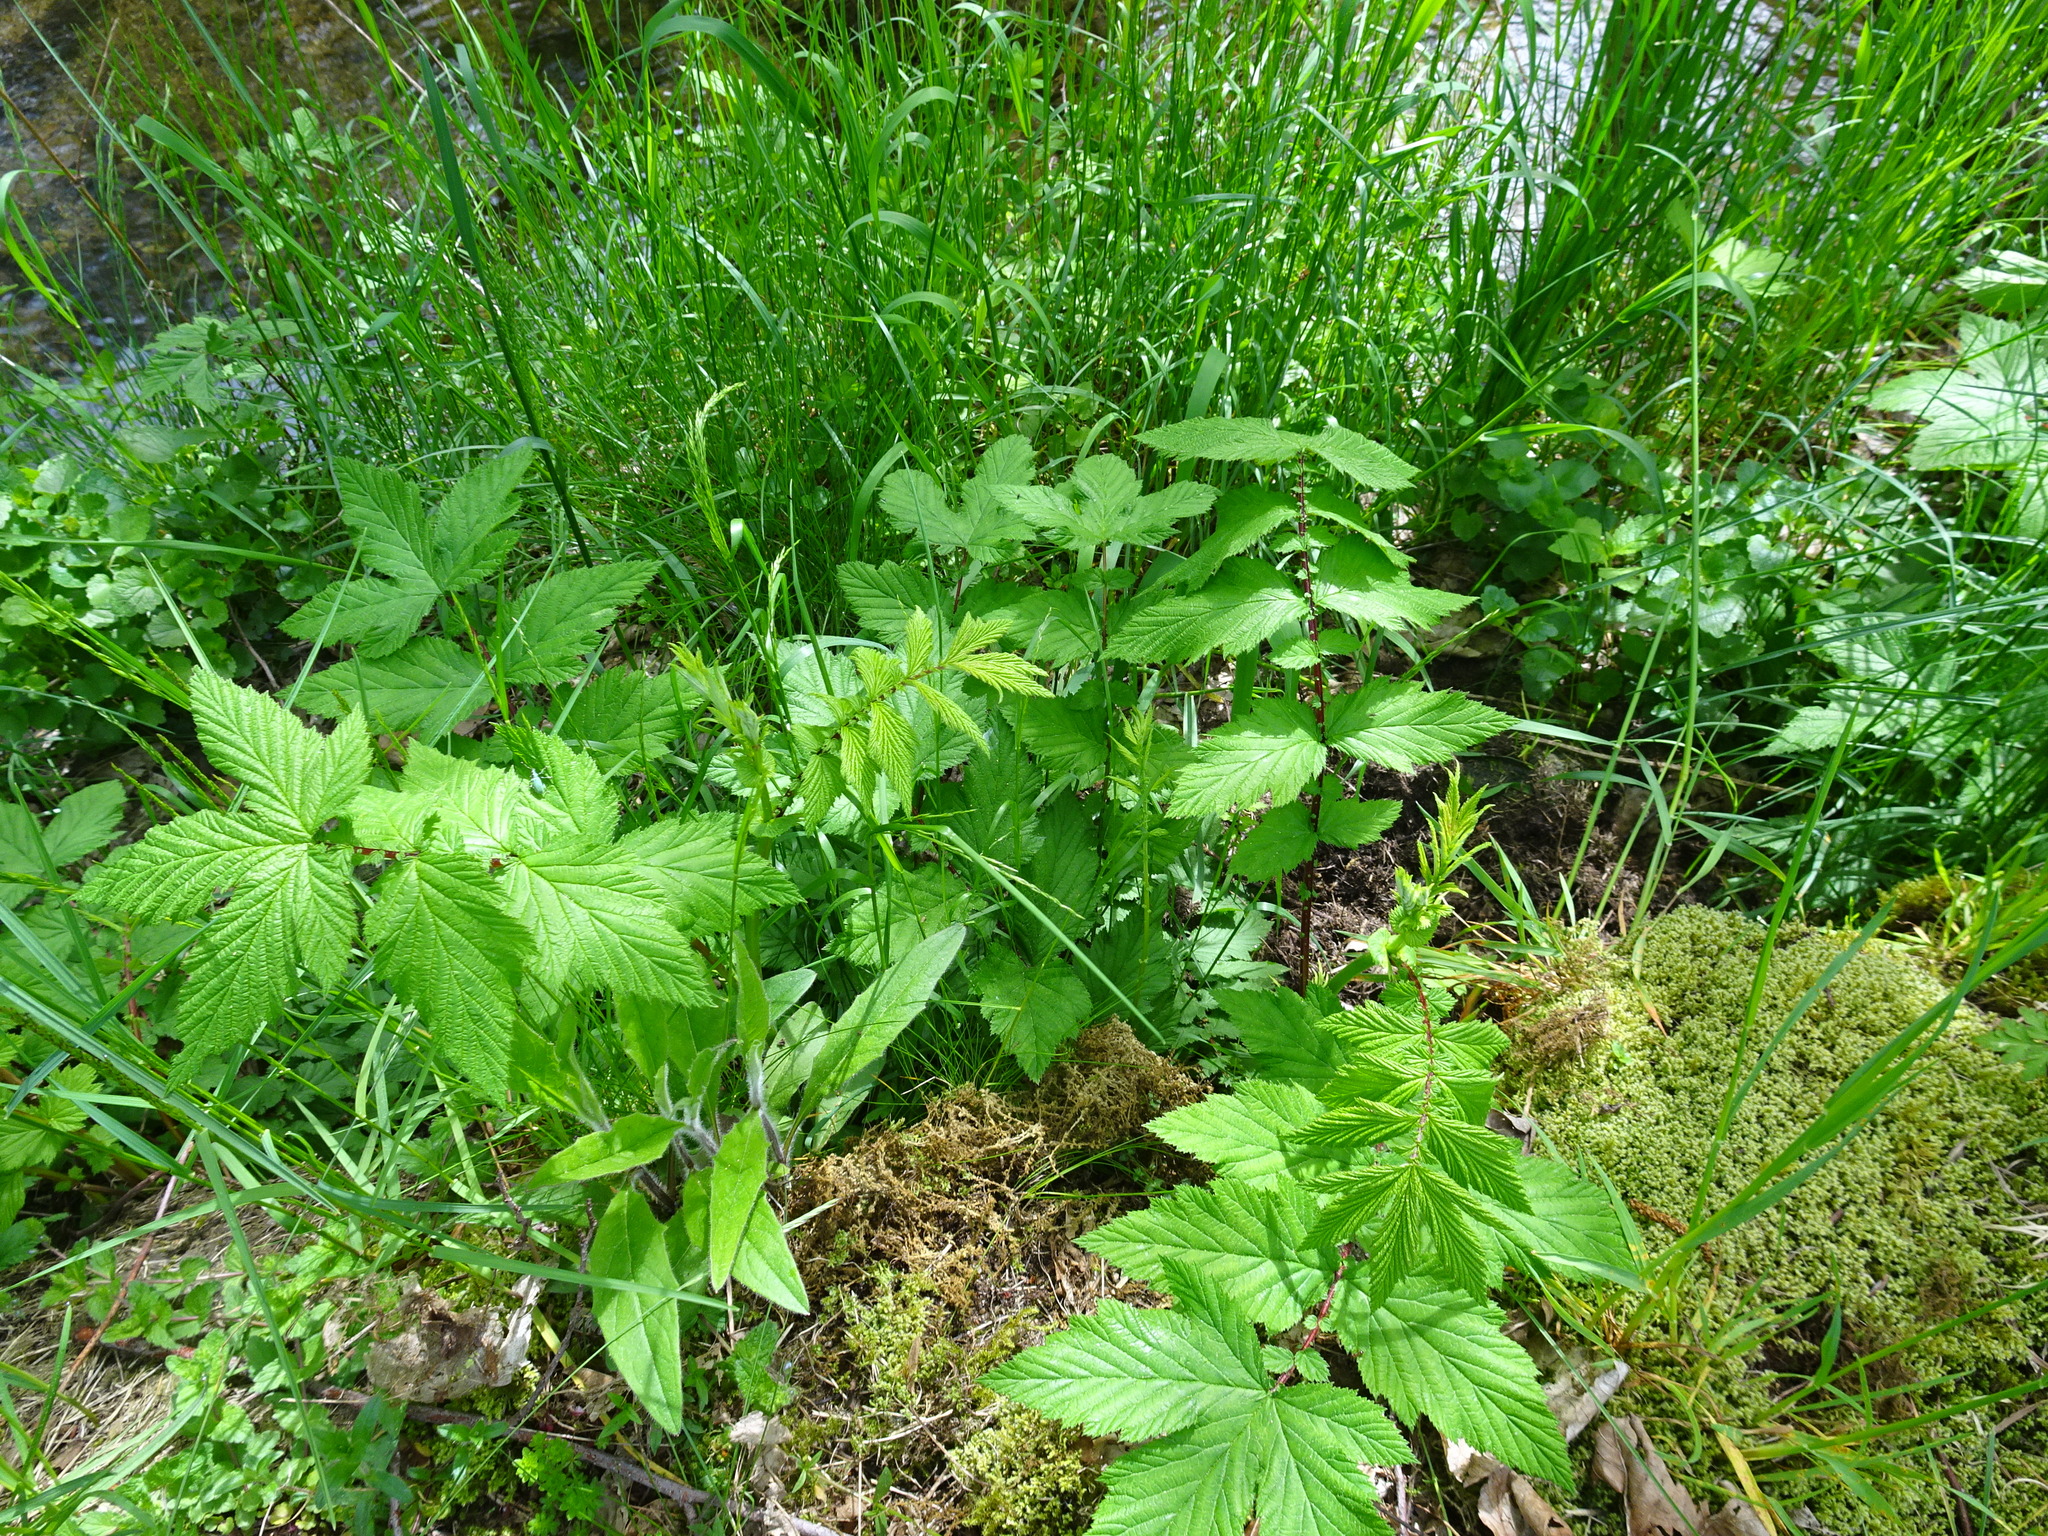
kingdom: Plantae
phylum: Tracheophyta
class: Magnoliopsida
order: Rosales
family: Rosaceae
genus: Filipendula
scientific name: Filipendula ulmaria
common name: Meadowsweet
